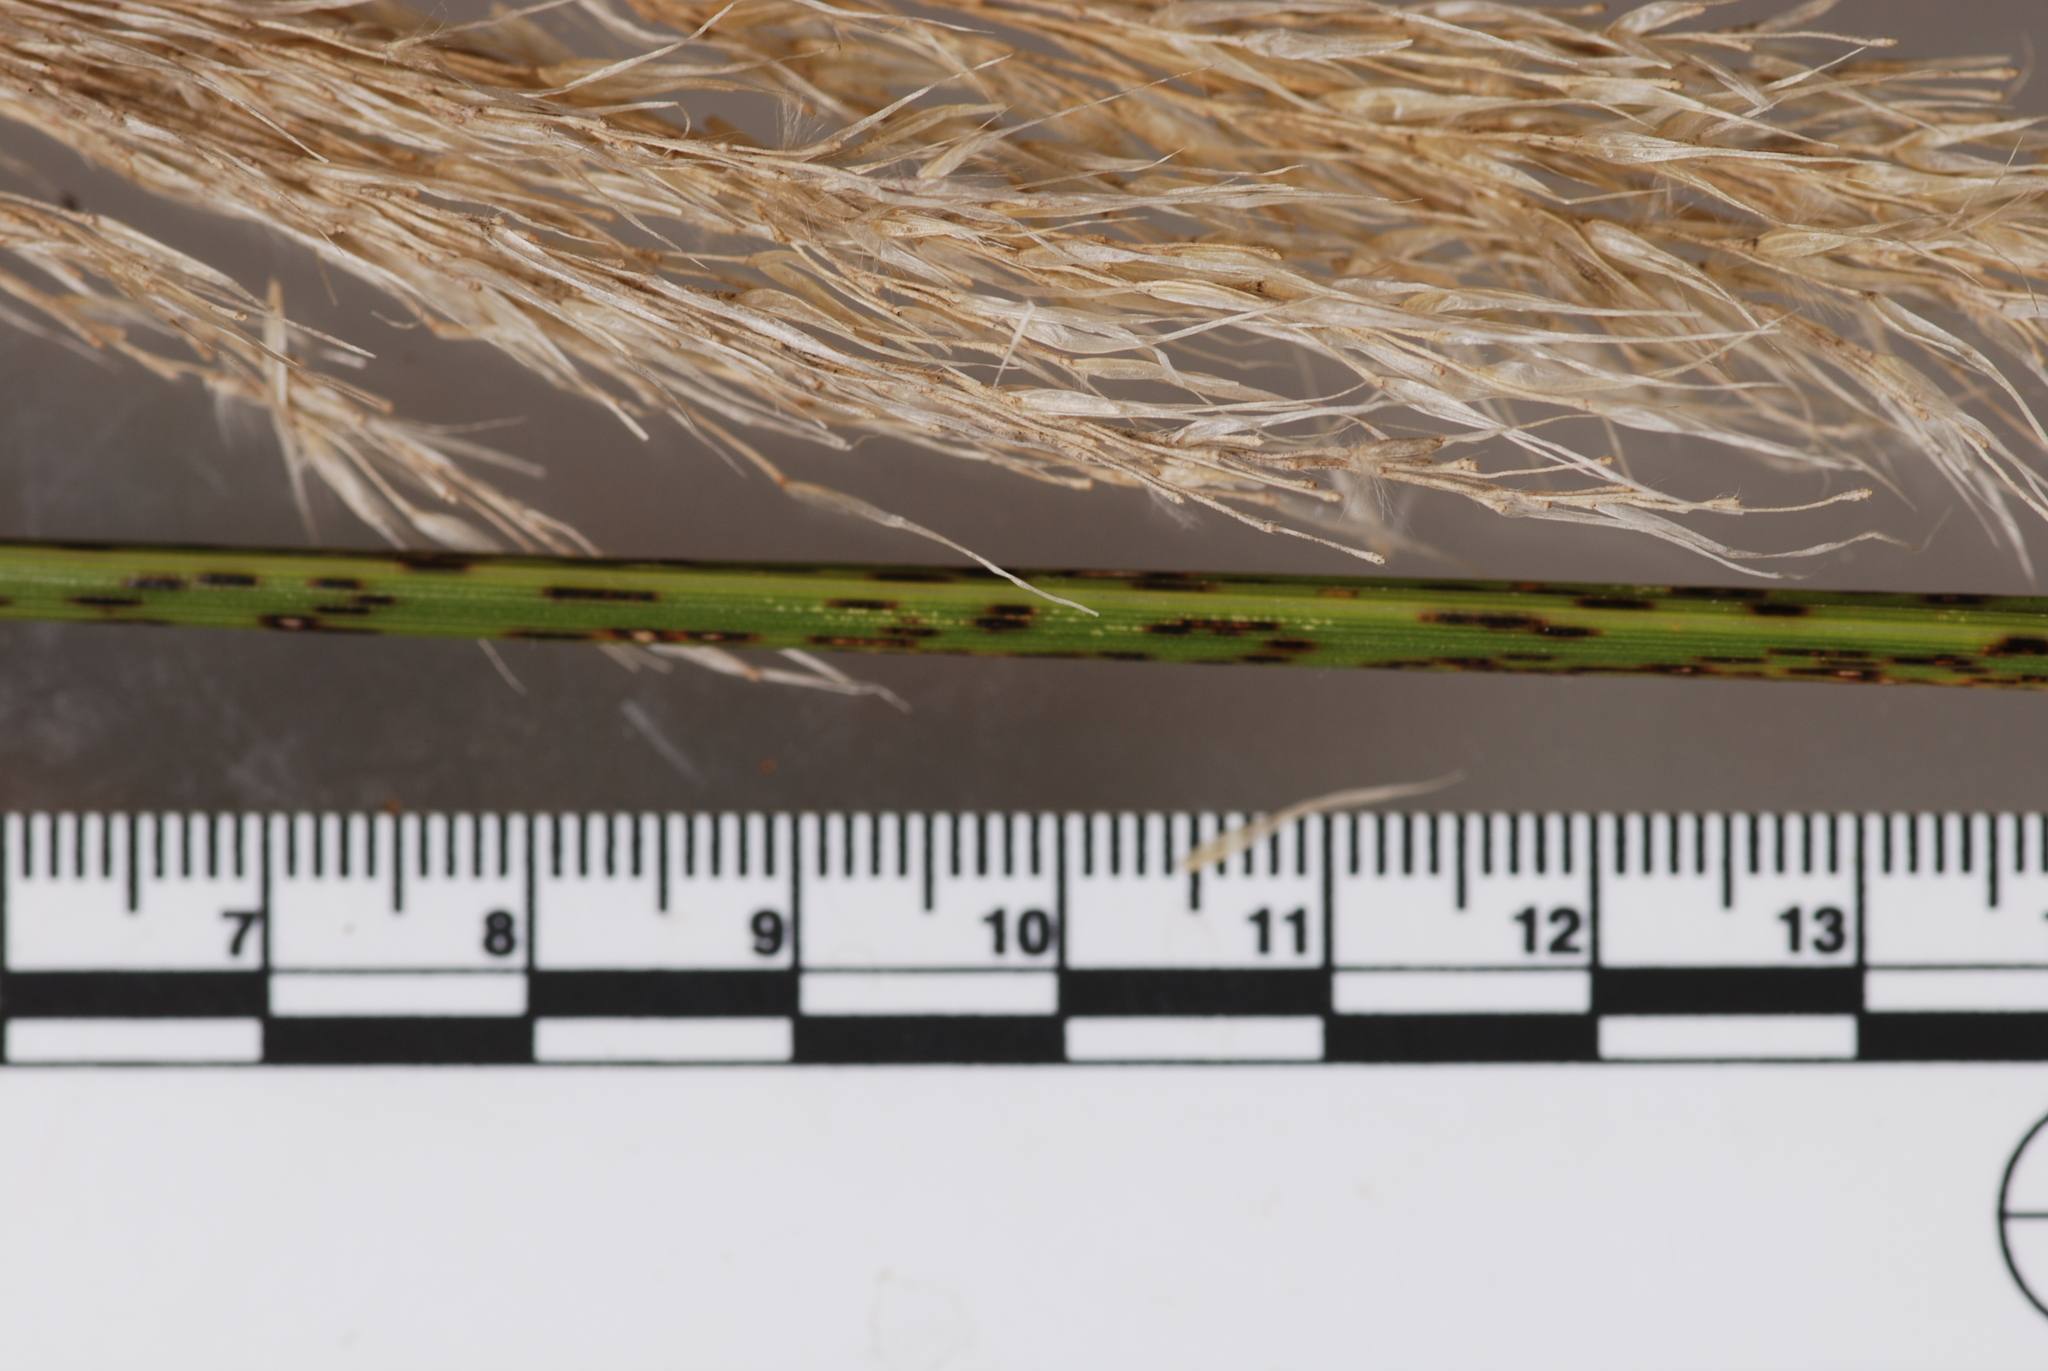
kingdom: Fungi
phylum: Basidiomycota
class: Pucciniomycetes
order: Pucciniales
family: Pucciniaceae
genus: Uredo
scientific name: Uredo toetoe
